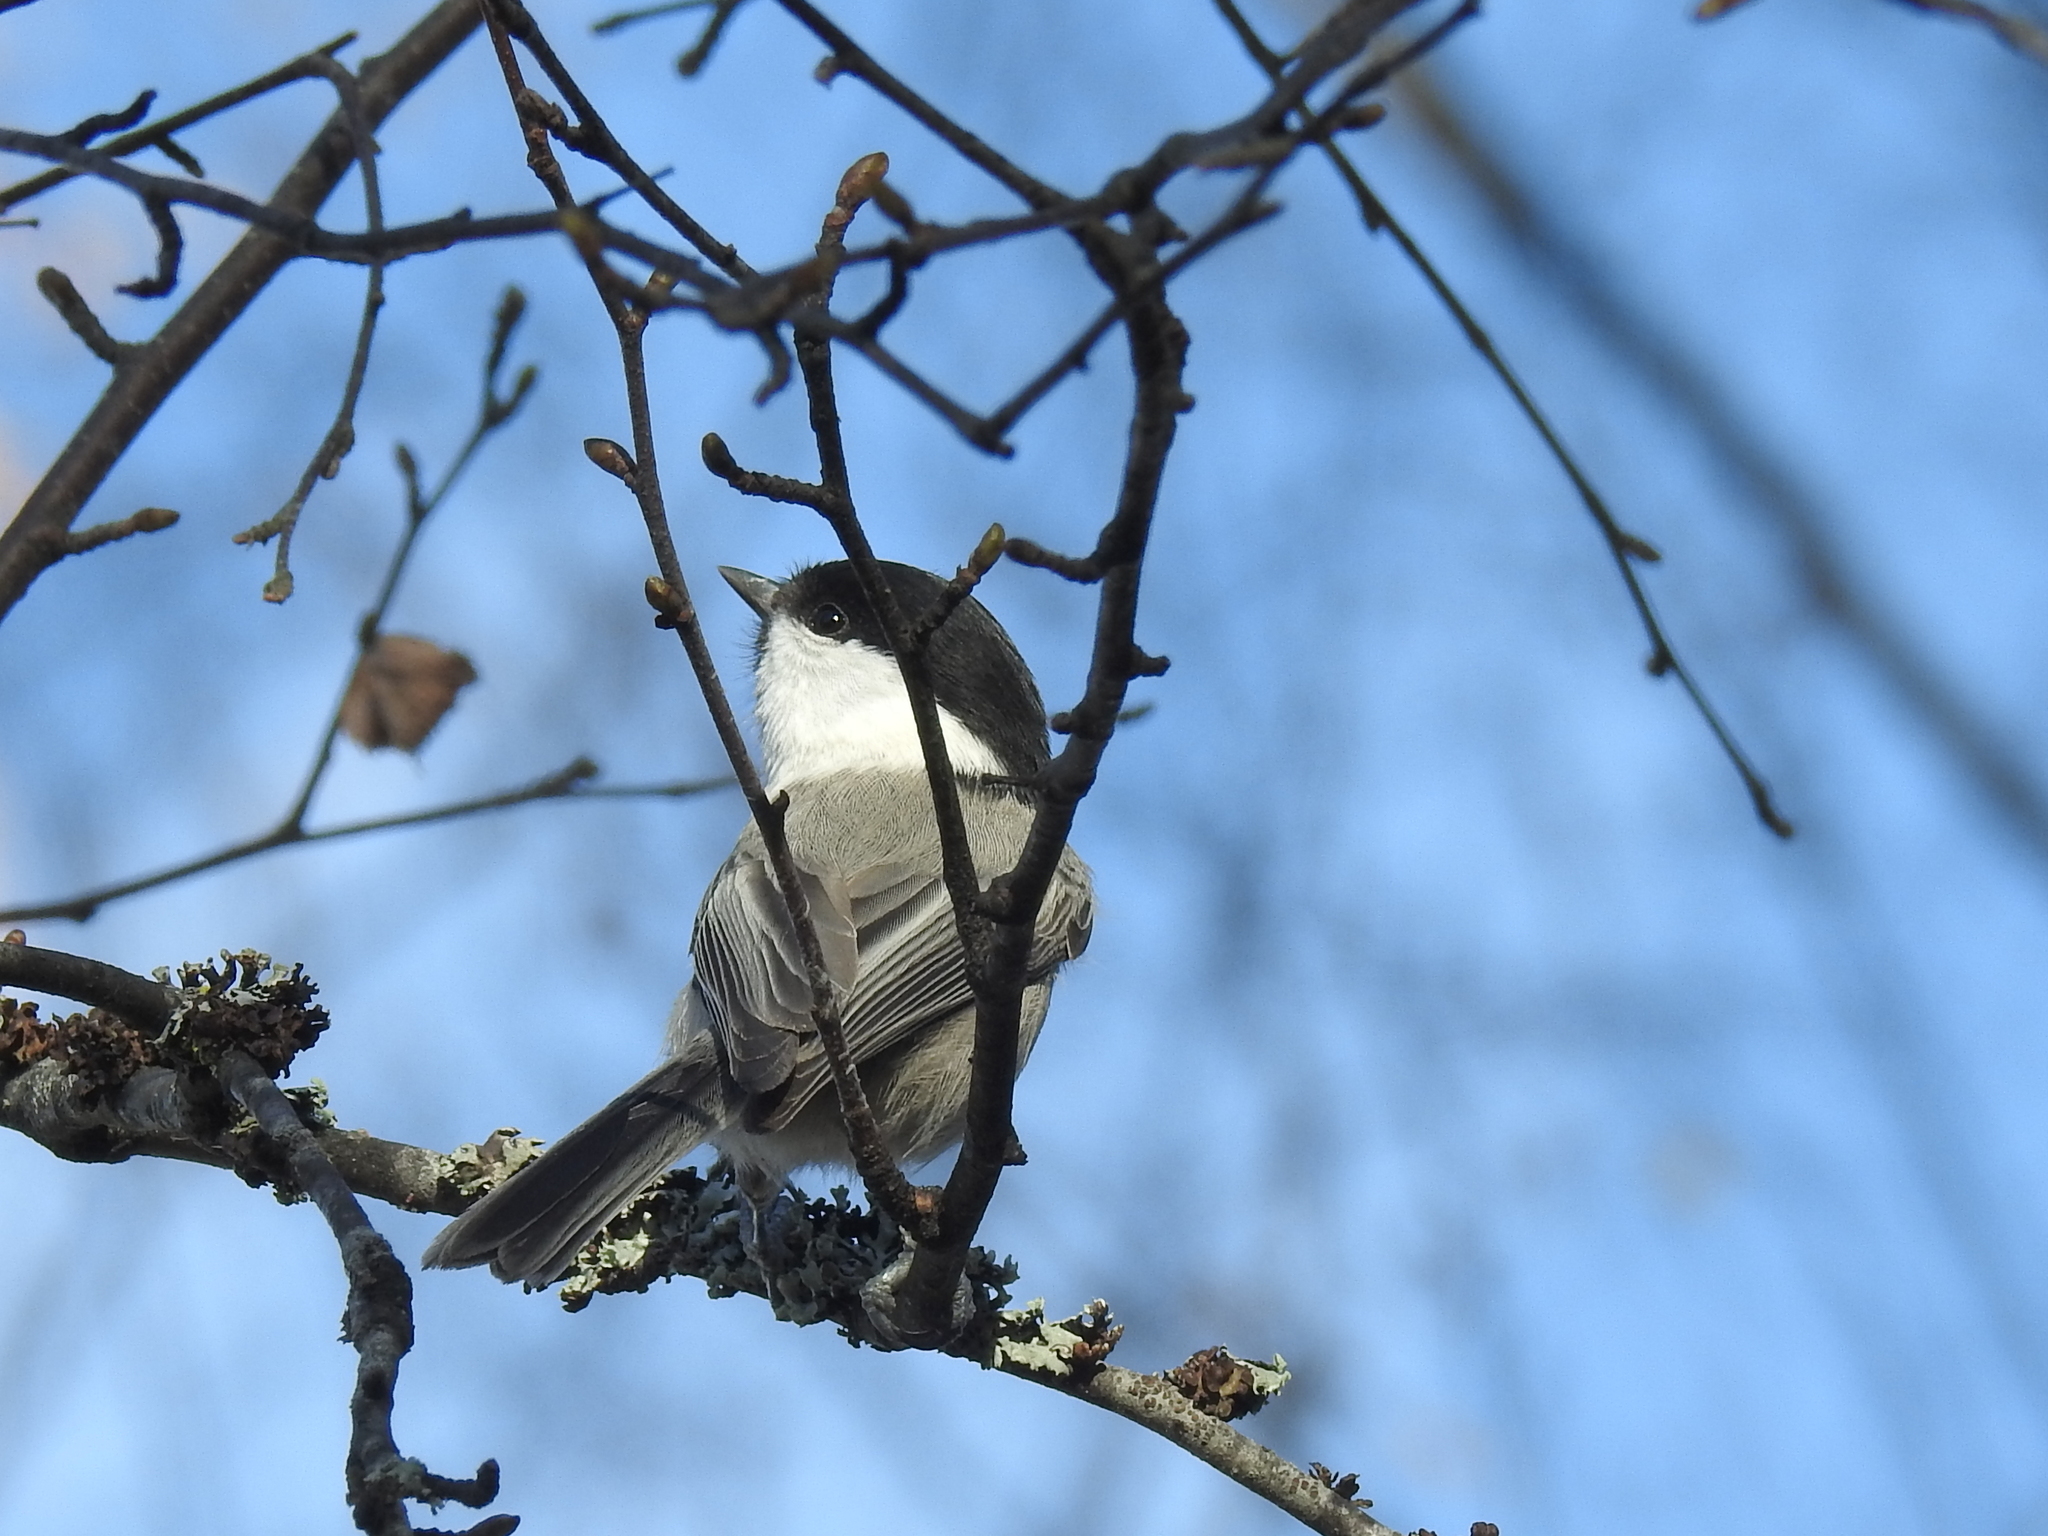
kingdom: Animalia
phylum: Chordata
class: Aves
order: Passeriformes
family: Paridae
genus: Poecile
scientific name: Poecile montanus
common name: Willow tit
